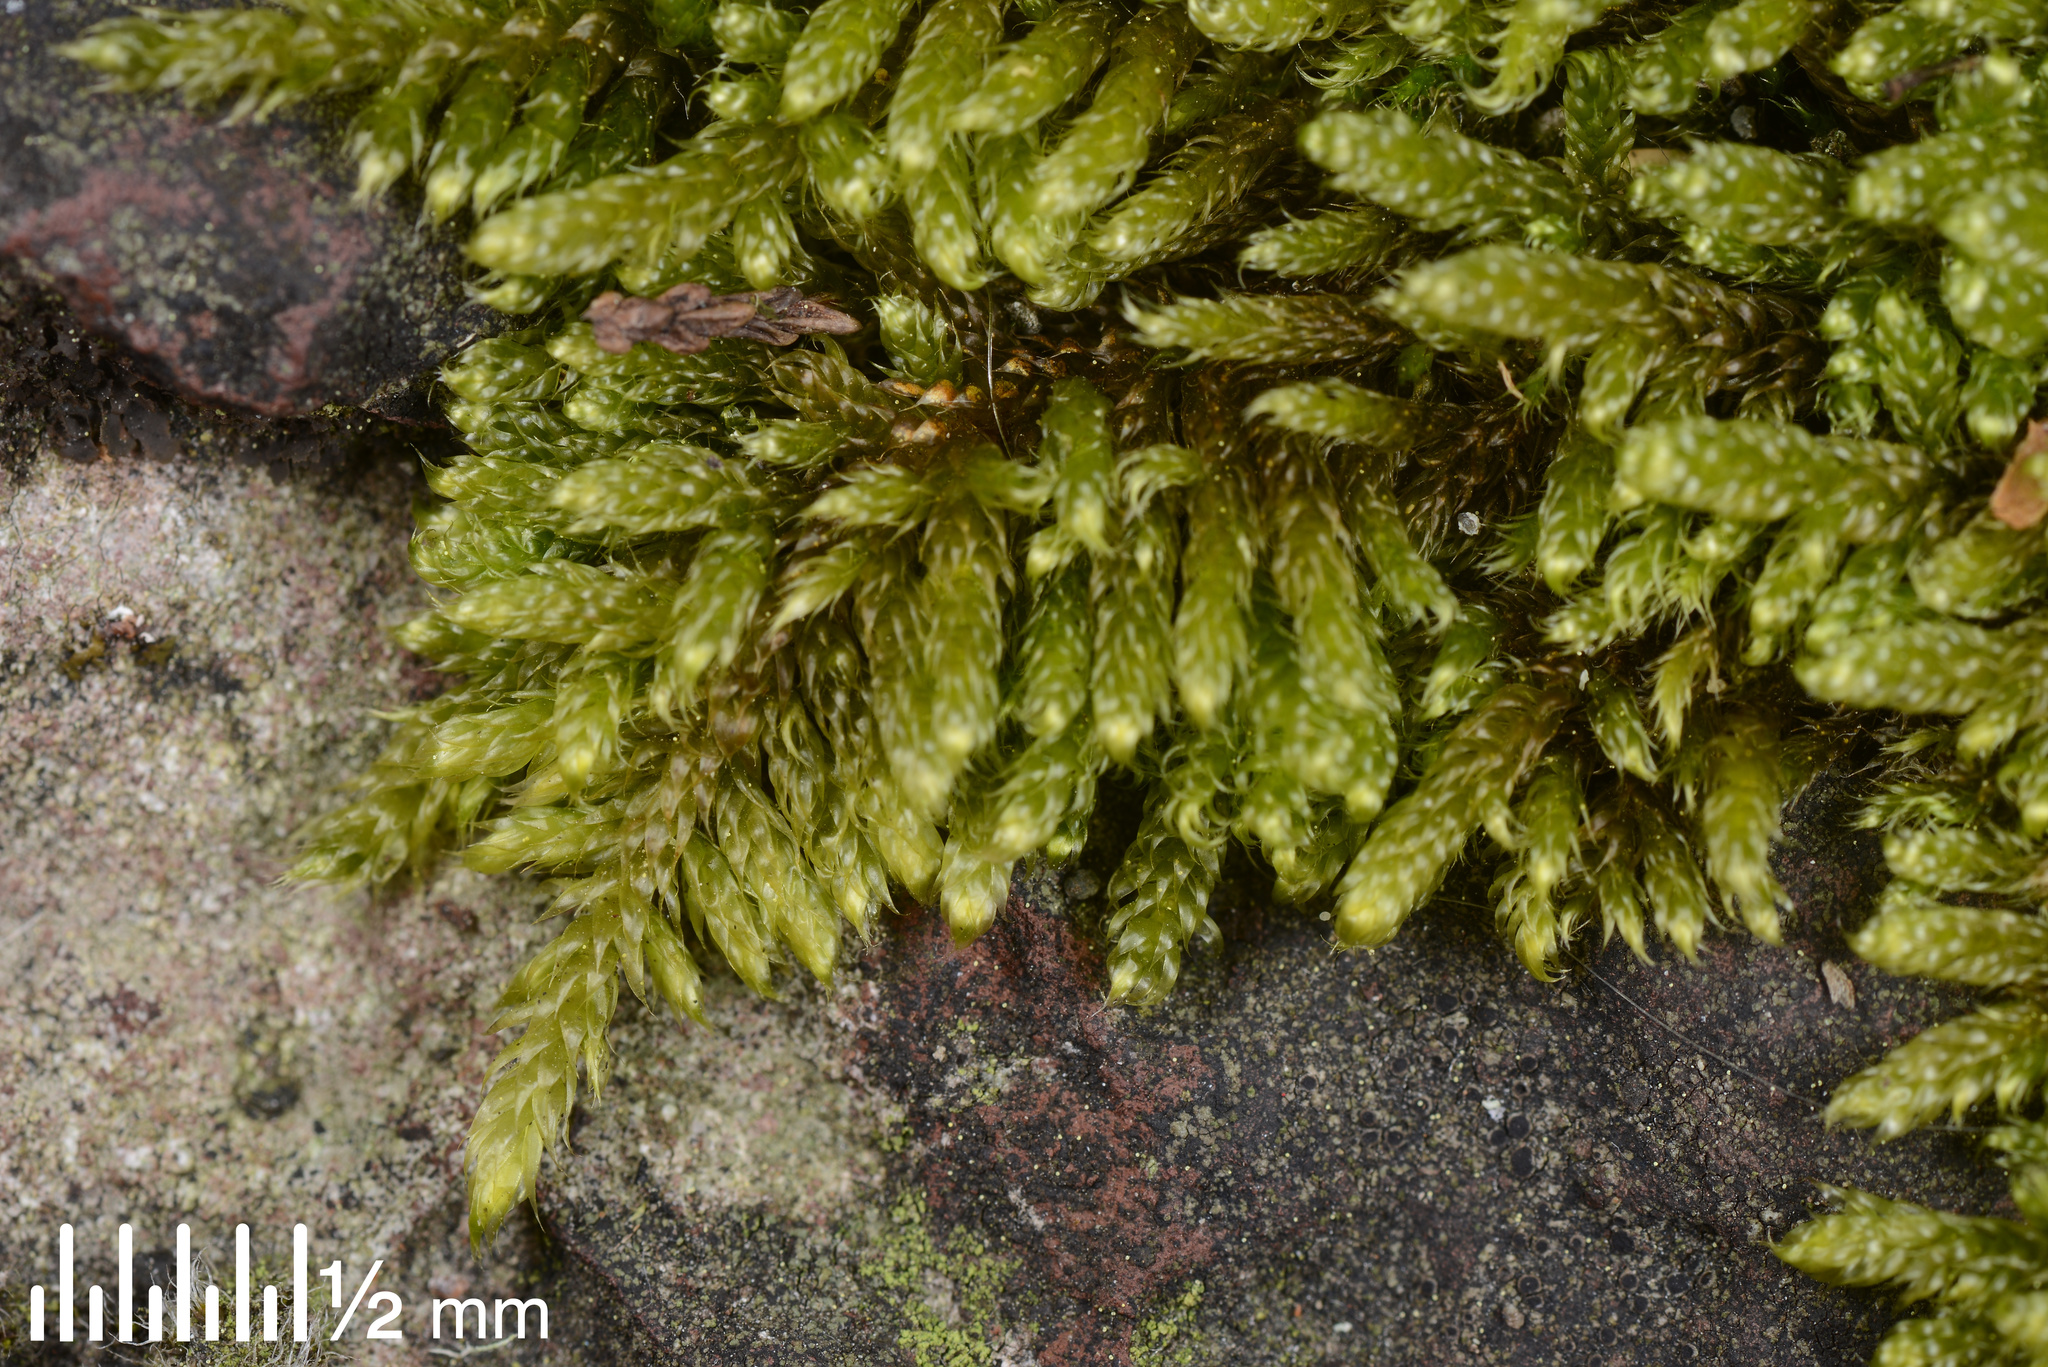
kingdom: Plantae
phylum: Bryophyta
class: Bryopsida
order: Hypnales
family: Hypnaceae
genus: Hypnum
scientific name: Hypnum cupressiforme
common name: Cypress-leaved plait-moss
